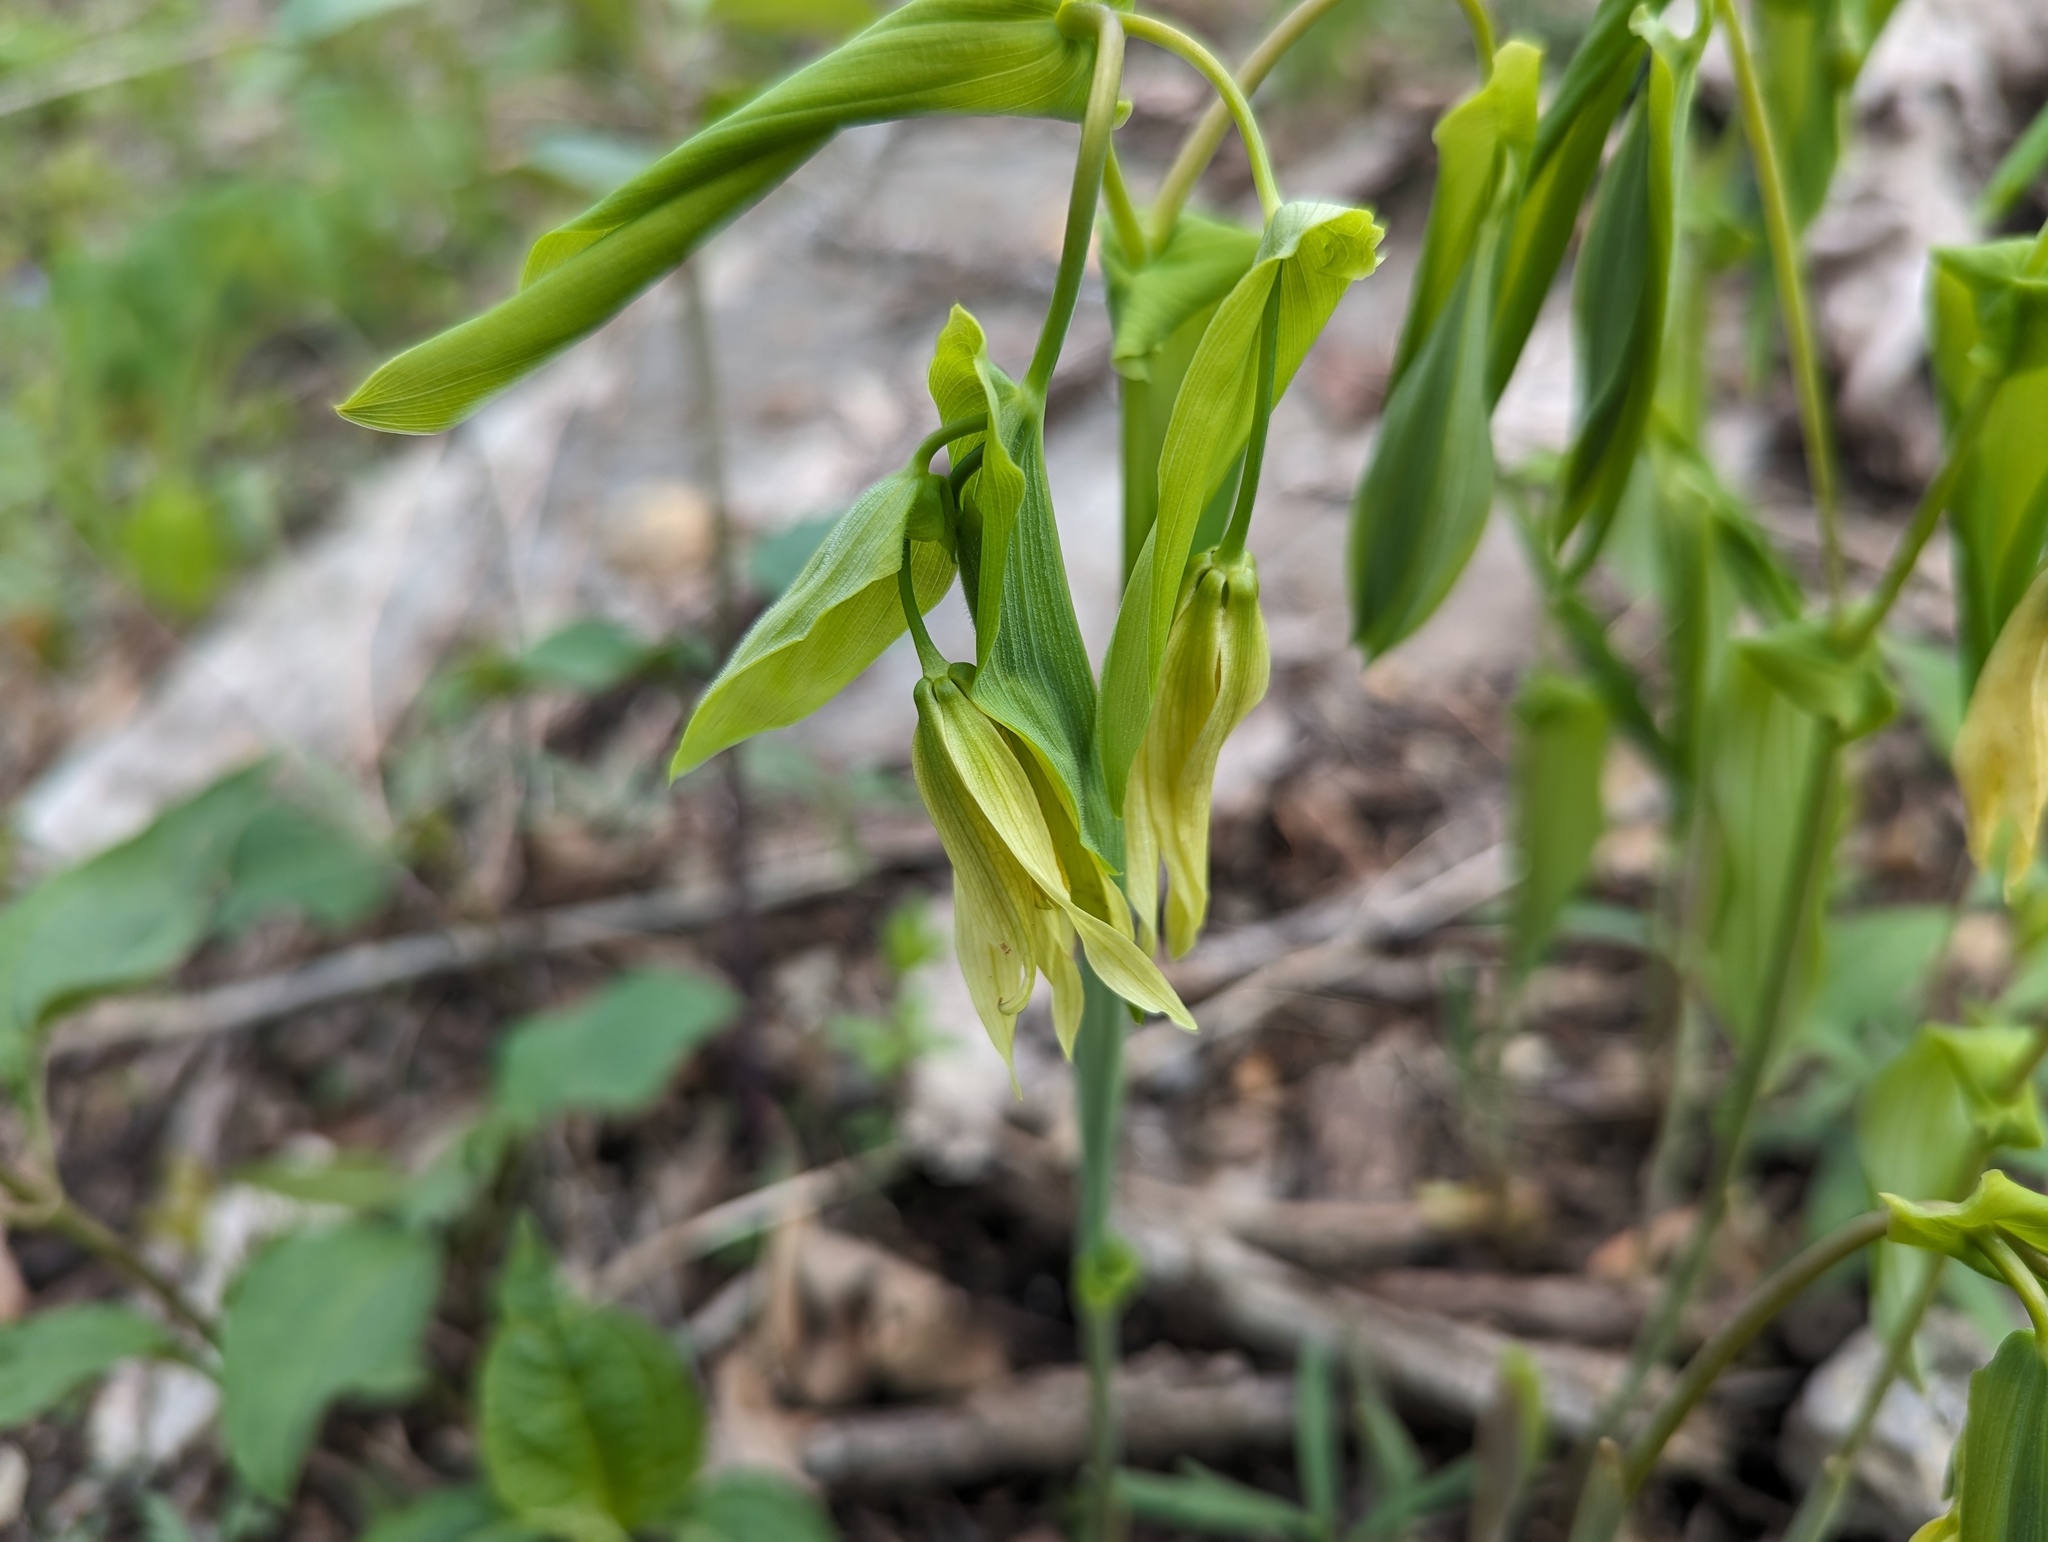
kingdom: Plantae
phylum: Tracheophyta
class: Liliopsida
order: Liliales
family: Colchicaceae
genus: Uvularia
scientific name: Uvularia grandiflora
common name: Bellwort
